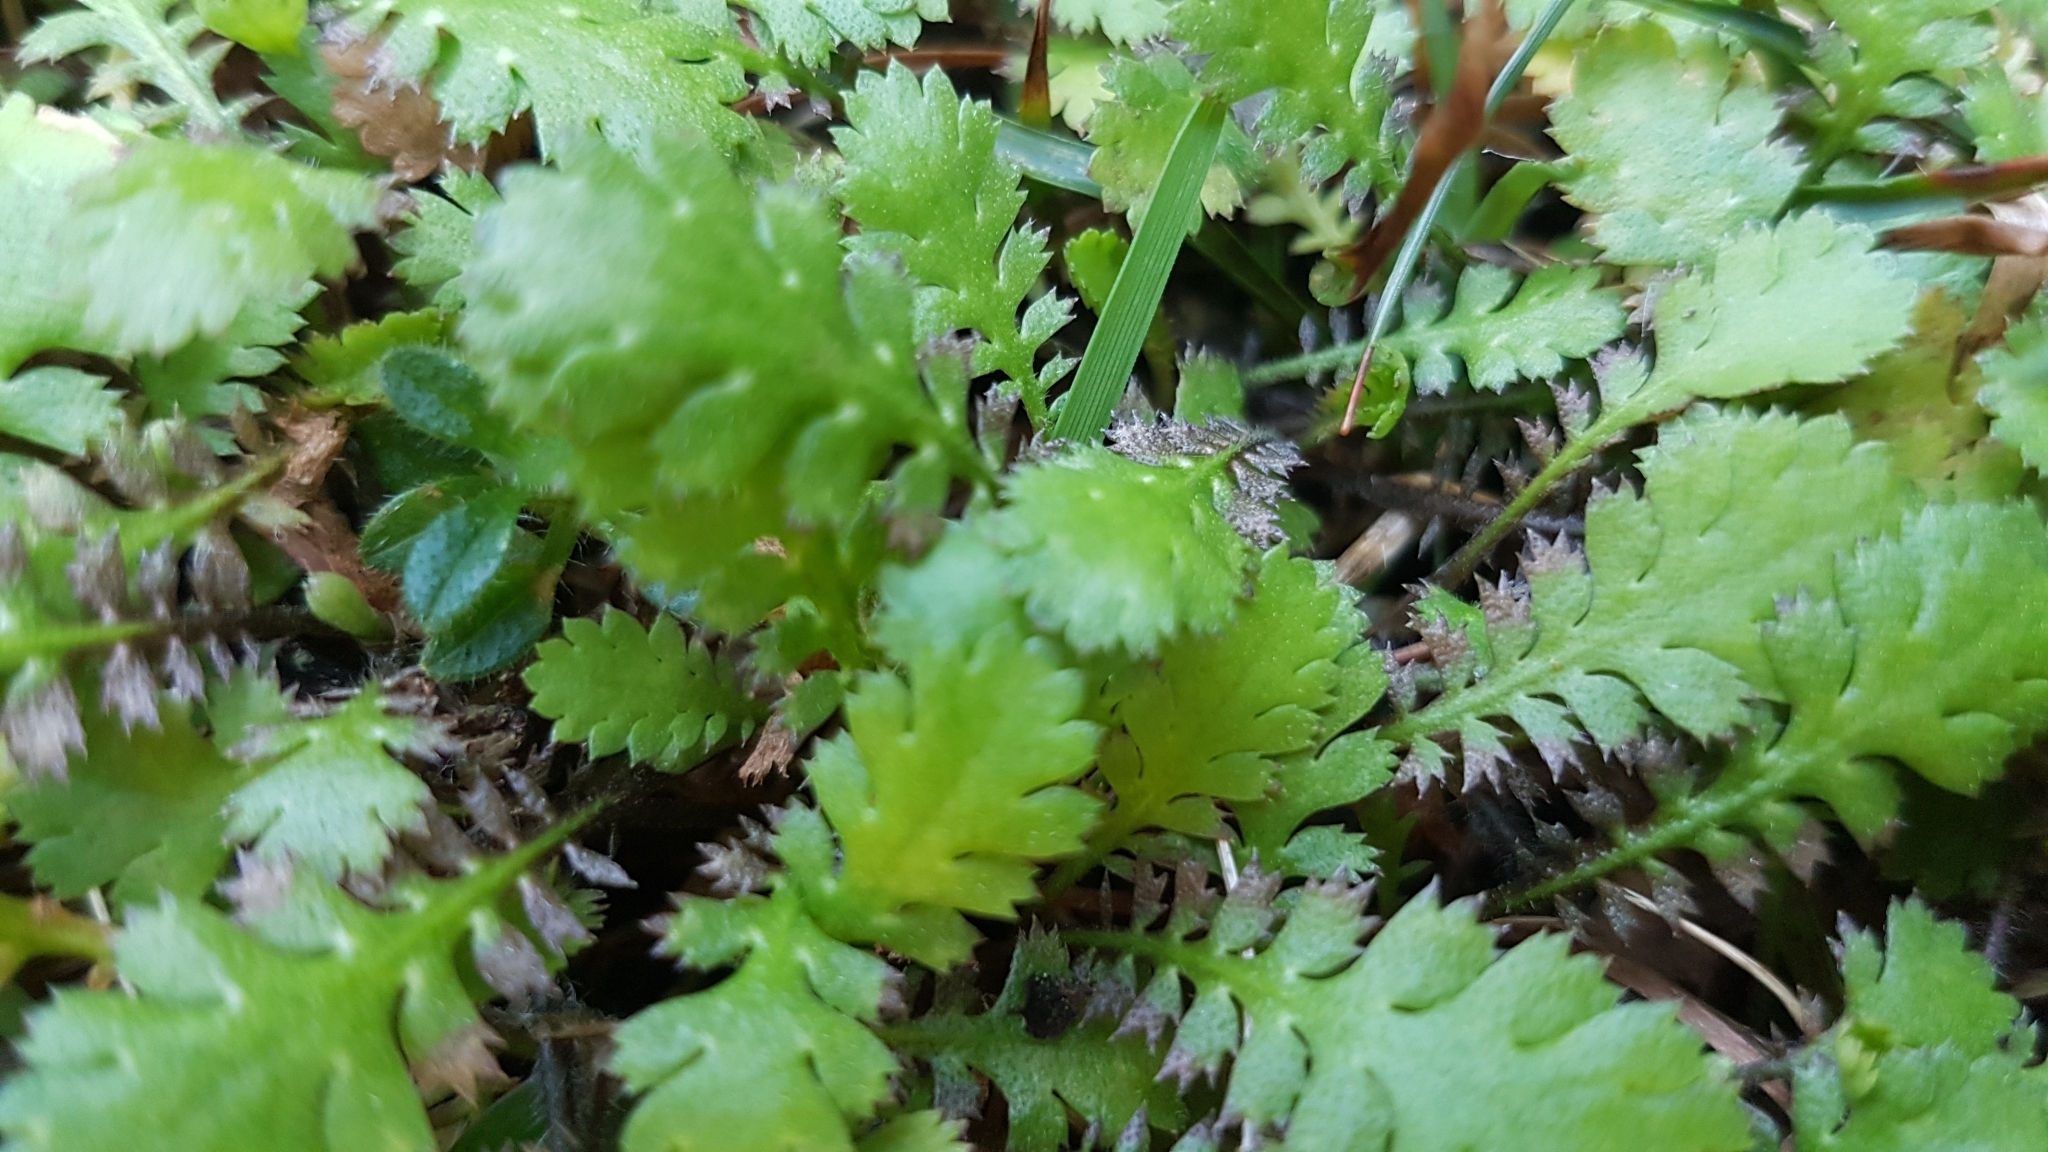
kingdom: Plantae
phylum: Tracheophyta
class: Magnoliopsida
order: Asterales
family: Asteraceae
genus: Leptinella
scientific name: Leptinella squalida
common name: New zealand brass-buttons
